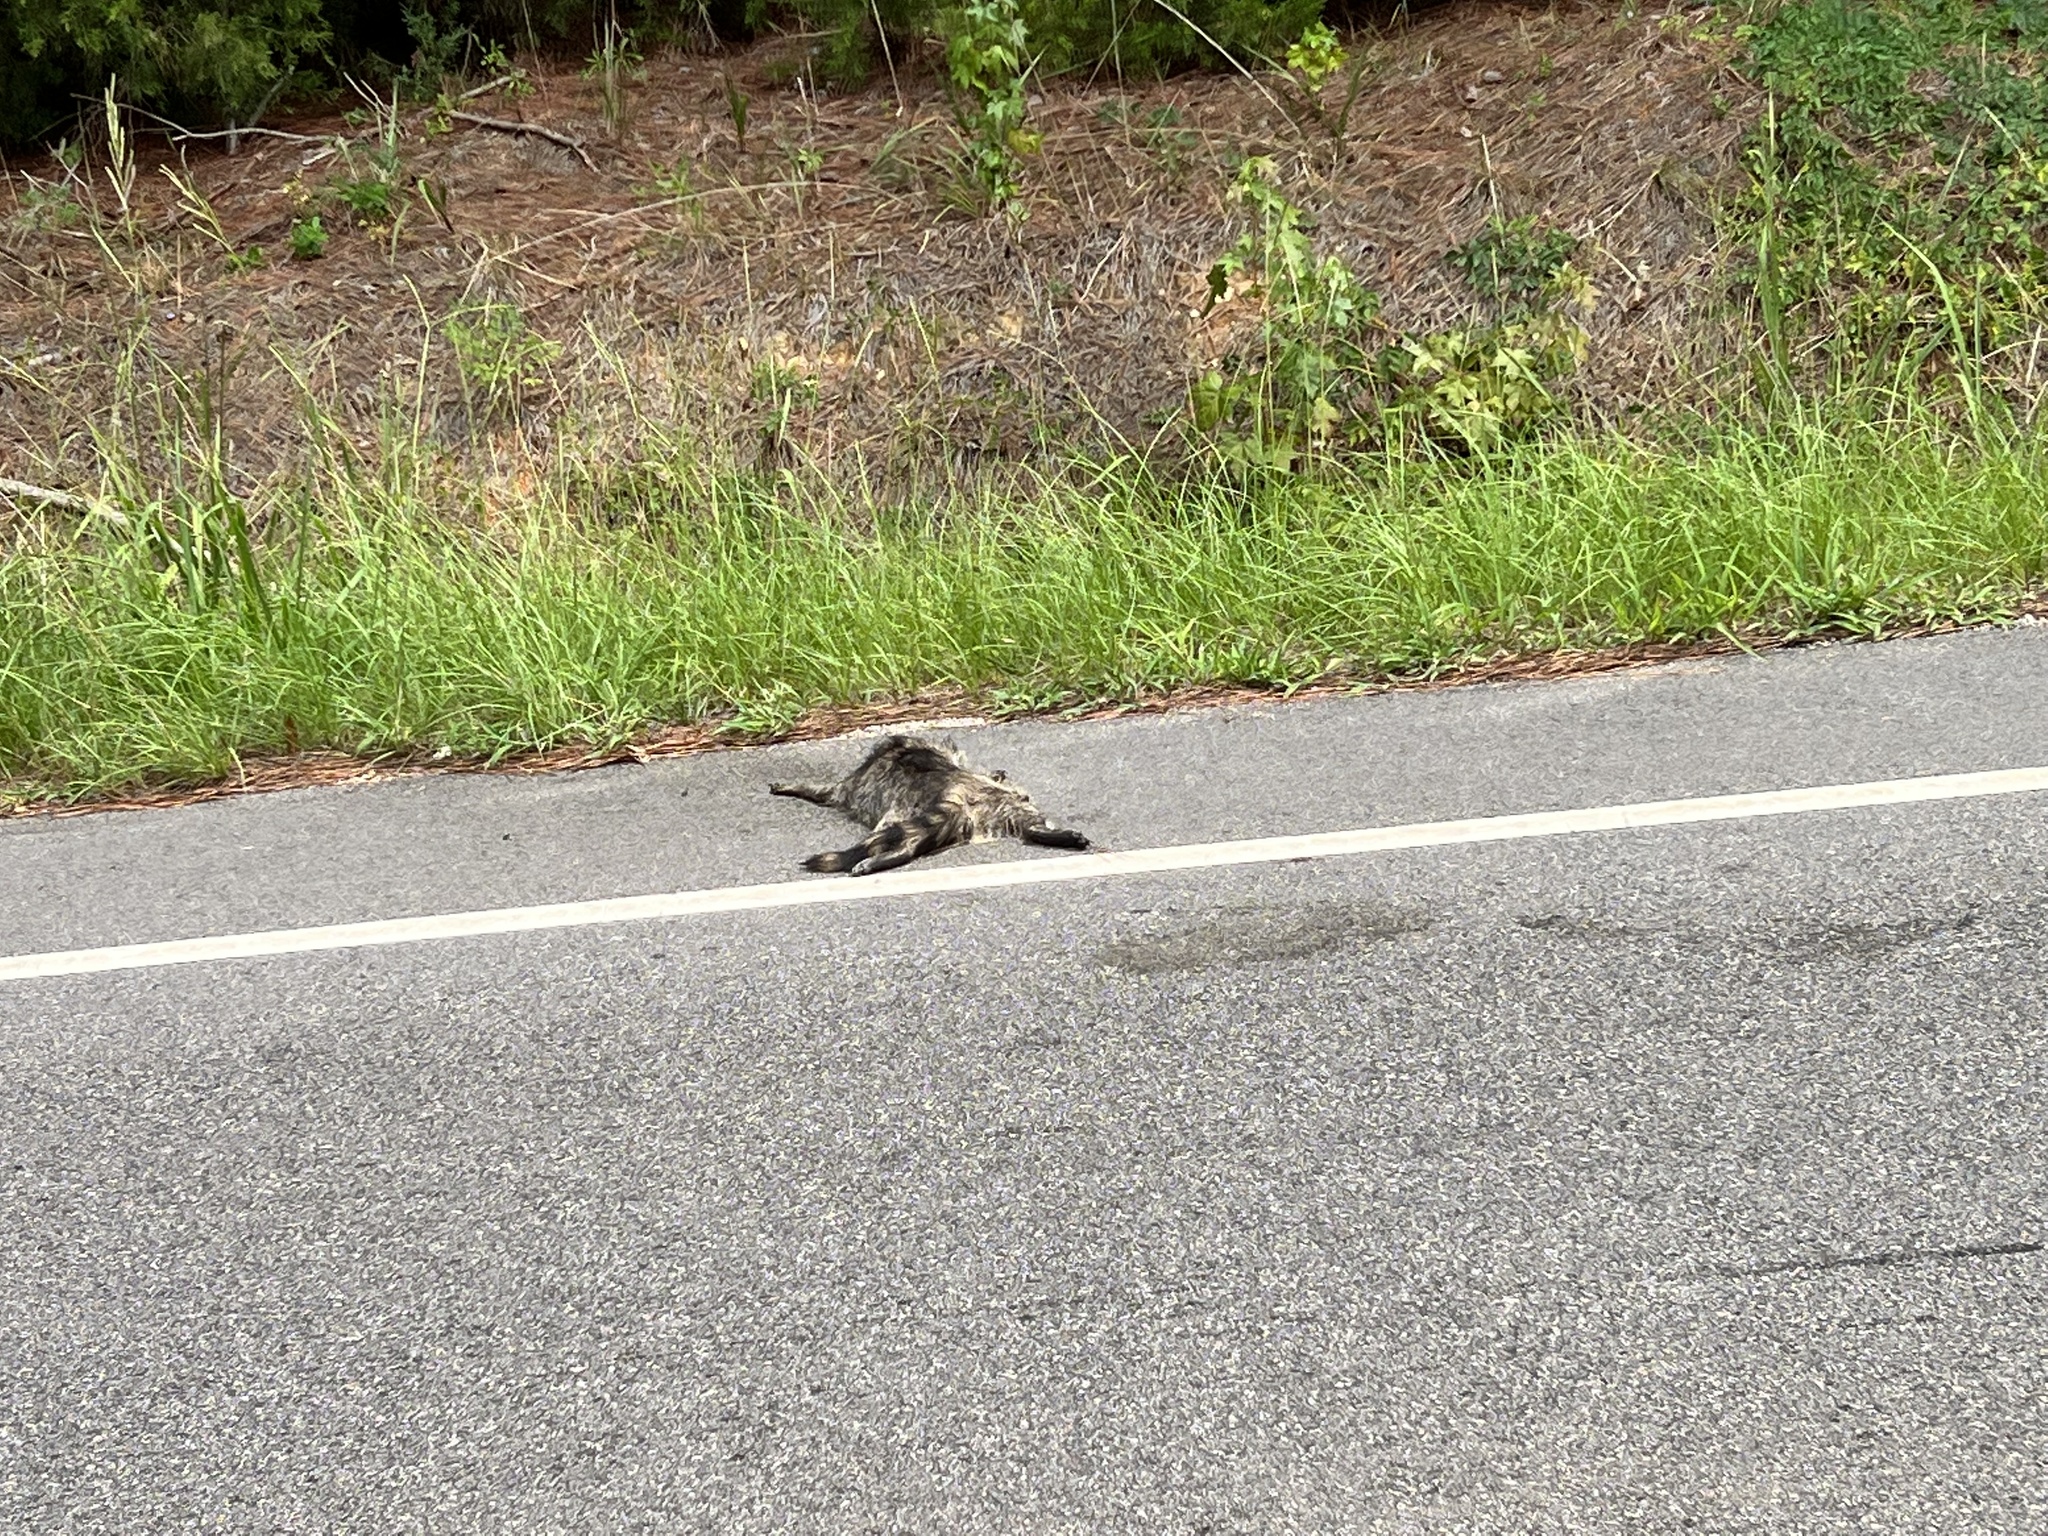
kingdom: Animalia
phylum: Chordata
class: Mammalia
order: Carnivora
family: Procyonidae
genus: Procyon
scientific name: Procyon lotor
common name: Raccoon
